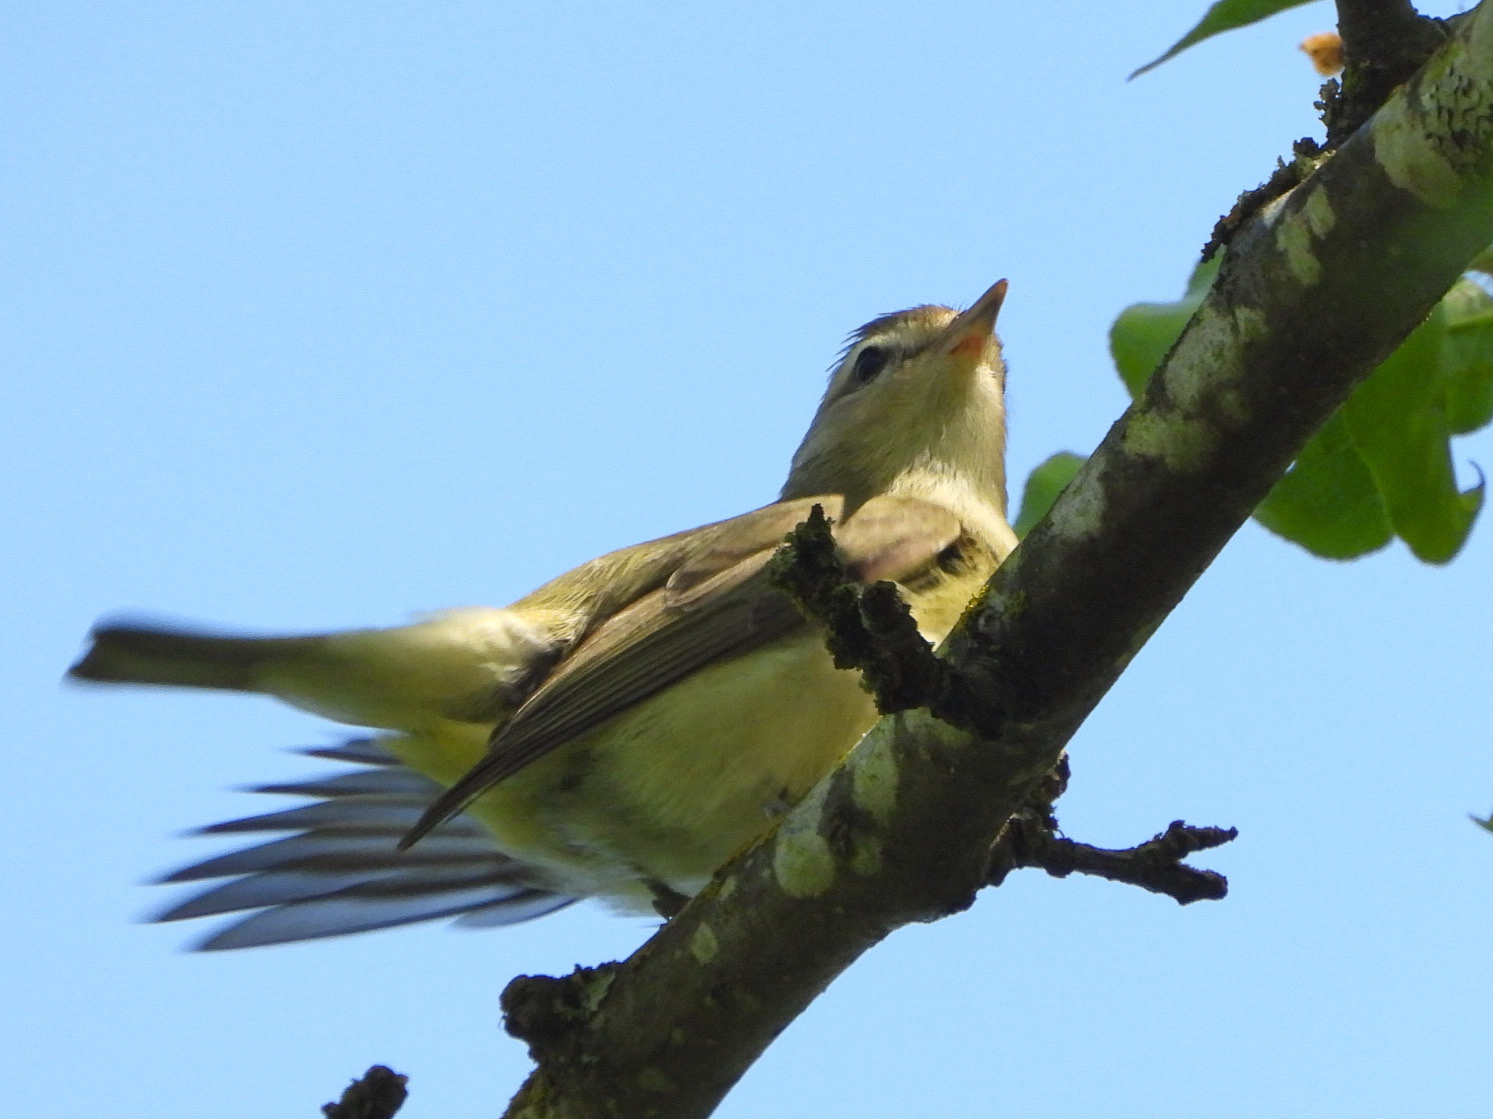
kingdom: Animalia
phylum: Chordata
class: Aves
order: Passeriformes
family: Vireonidae
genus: Vireo
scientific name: Vireo gilvus
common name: Warbling vireo
